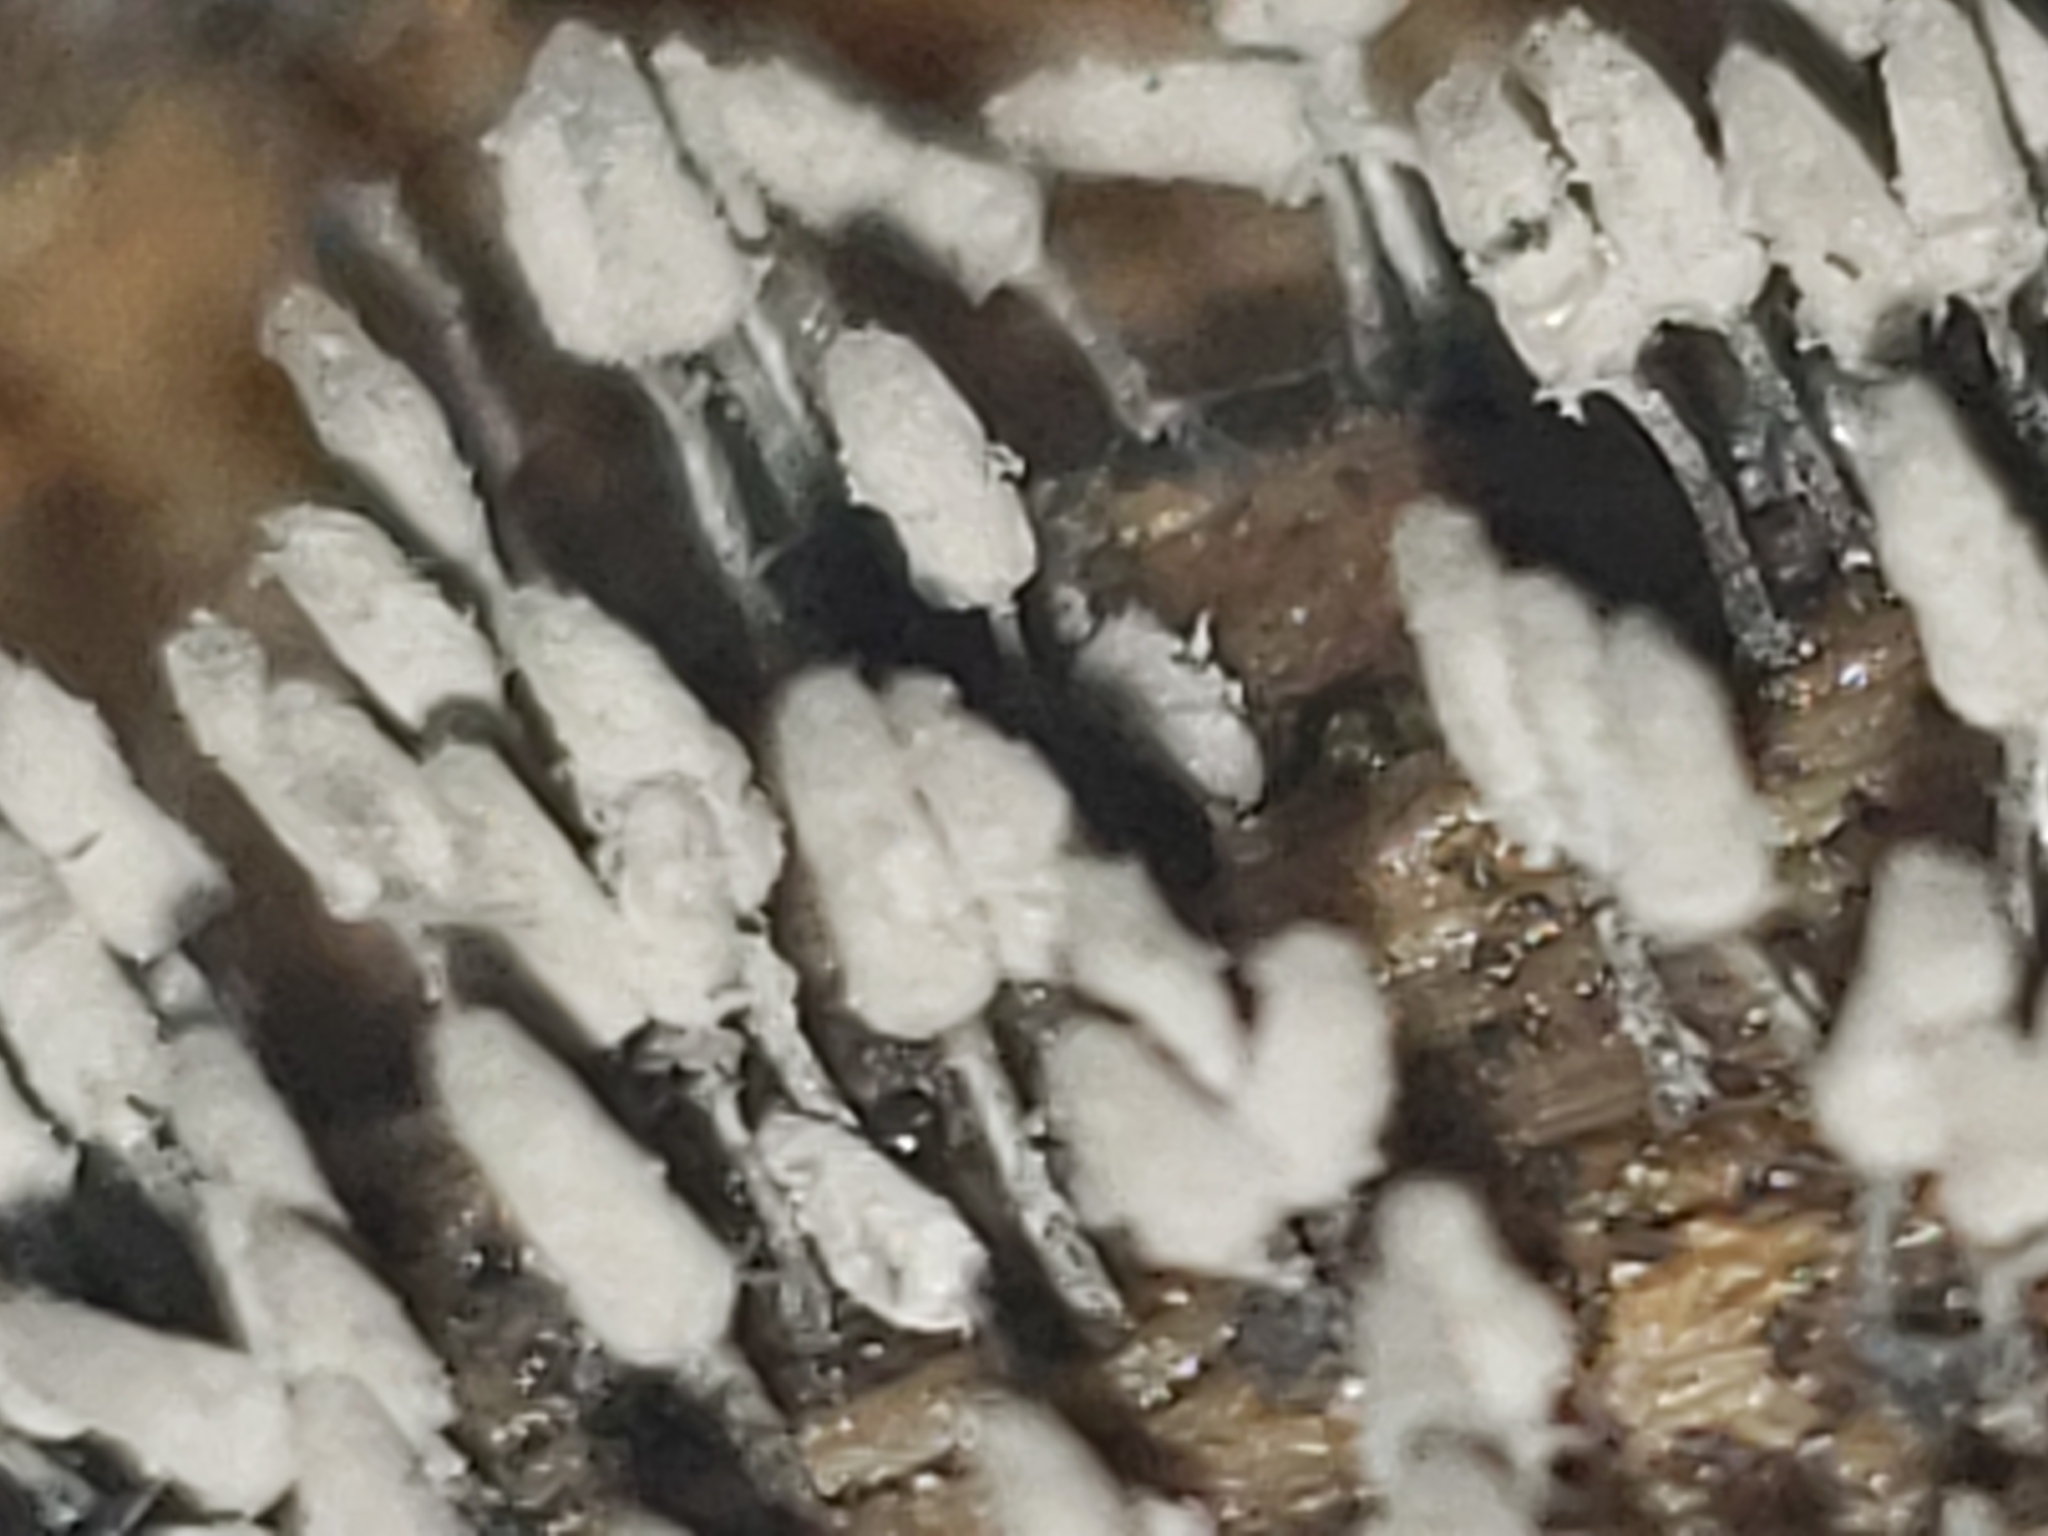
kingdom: Protozoa
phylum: Mycetozoa
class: Myxomycetes
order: Trichiales
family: Arcyriaceae
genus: Arcyria
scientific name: Arcyria cinerea
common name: White carnival candy slime mold
